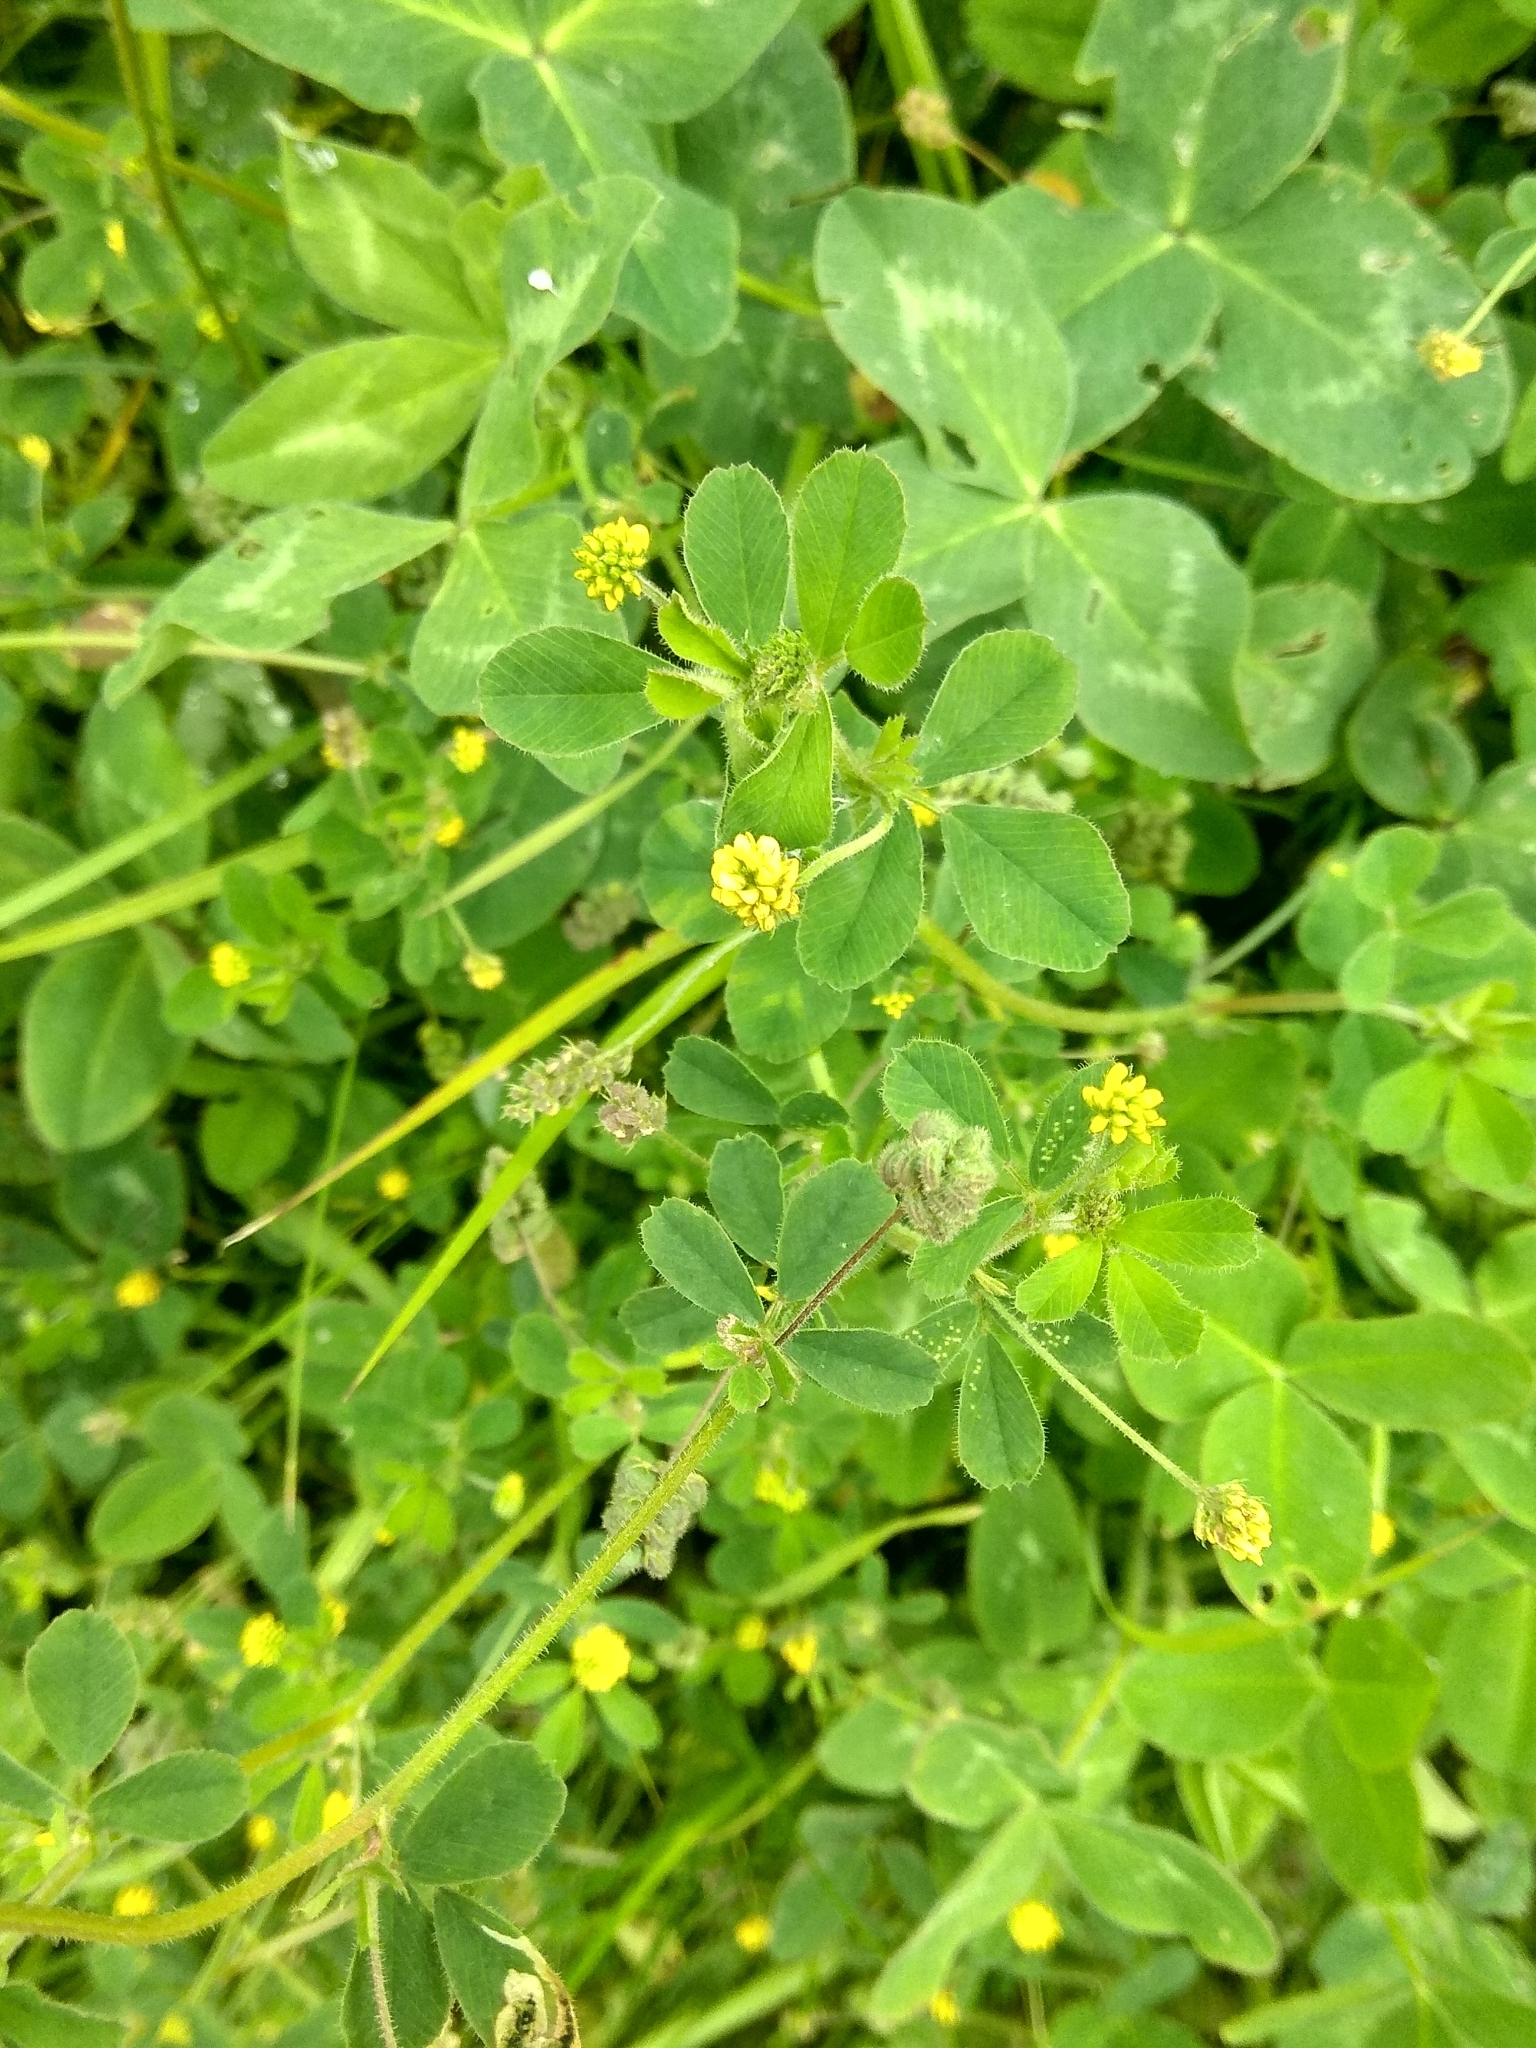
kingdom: Plantae
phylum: Tracheophyta
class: Magnoliopsida
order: Fabales
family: Fabaceae
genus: Medicago
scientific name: Medicago lupulina
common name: Black medick
